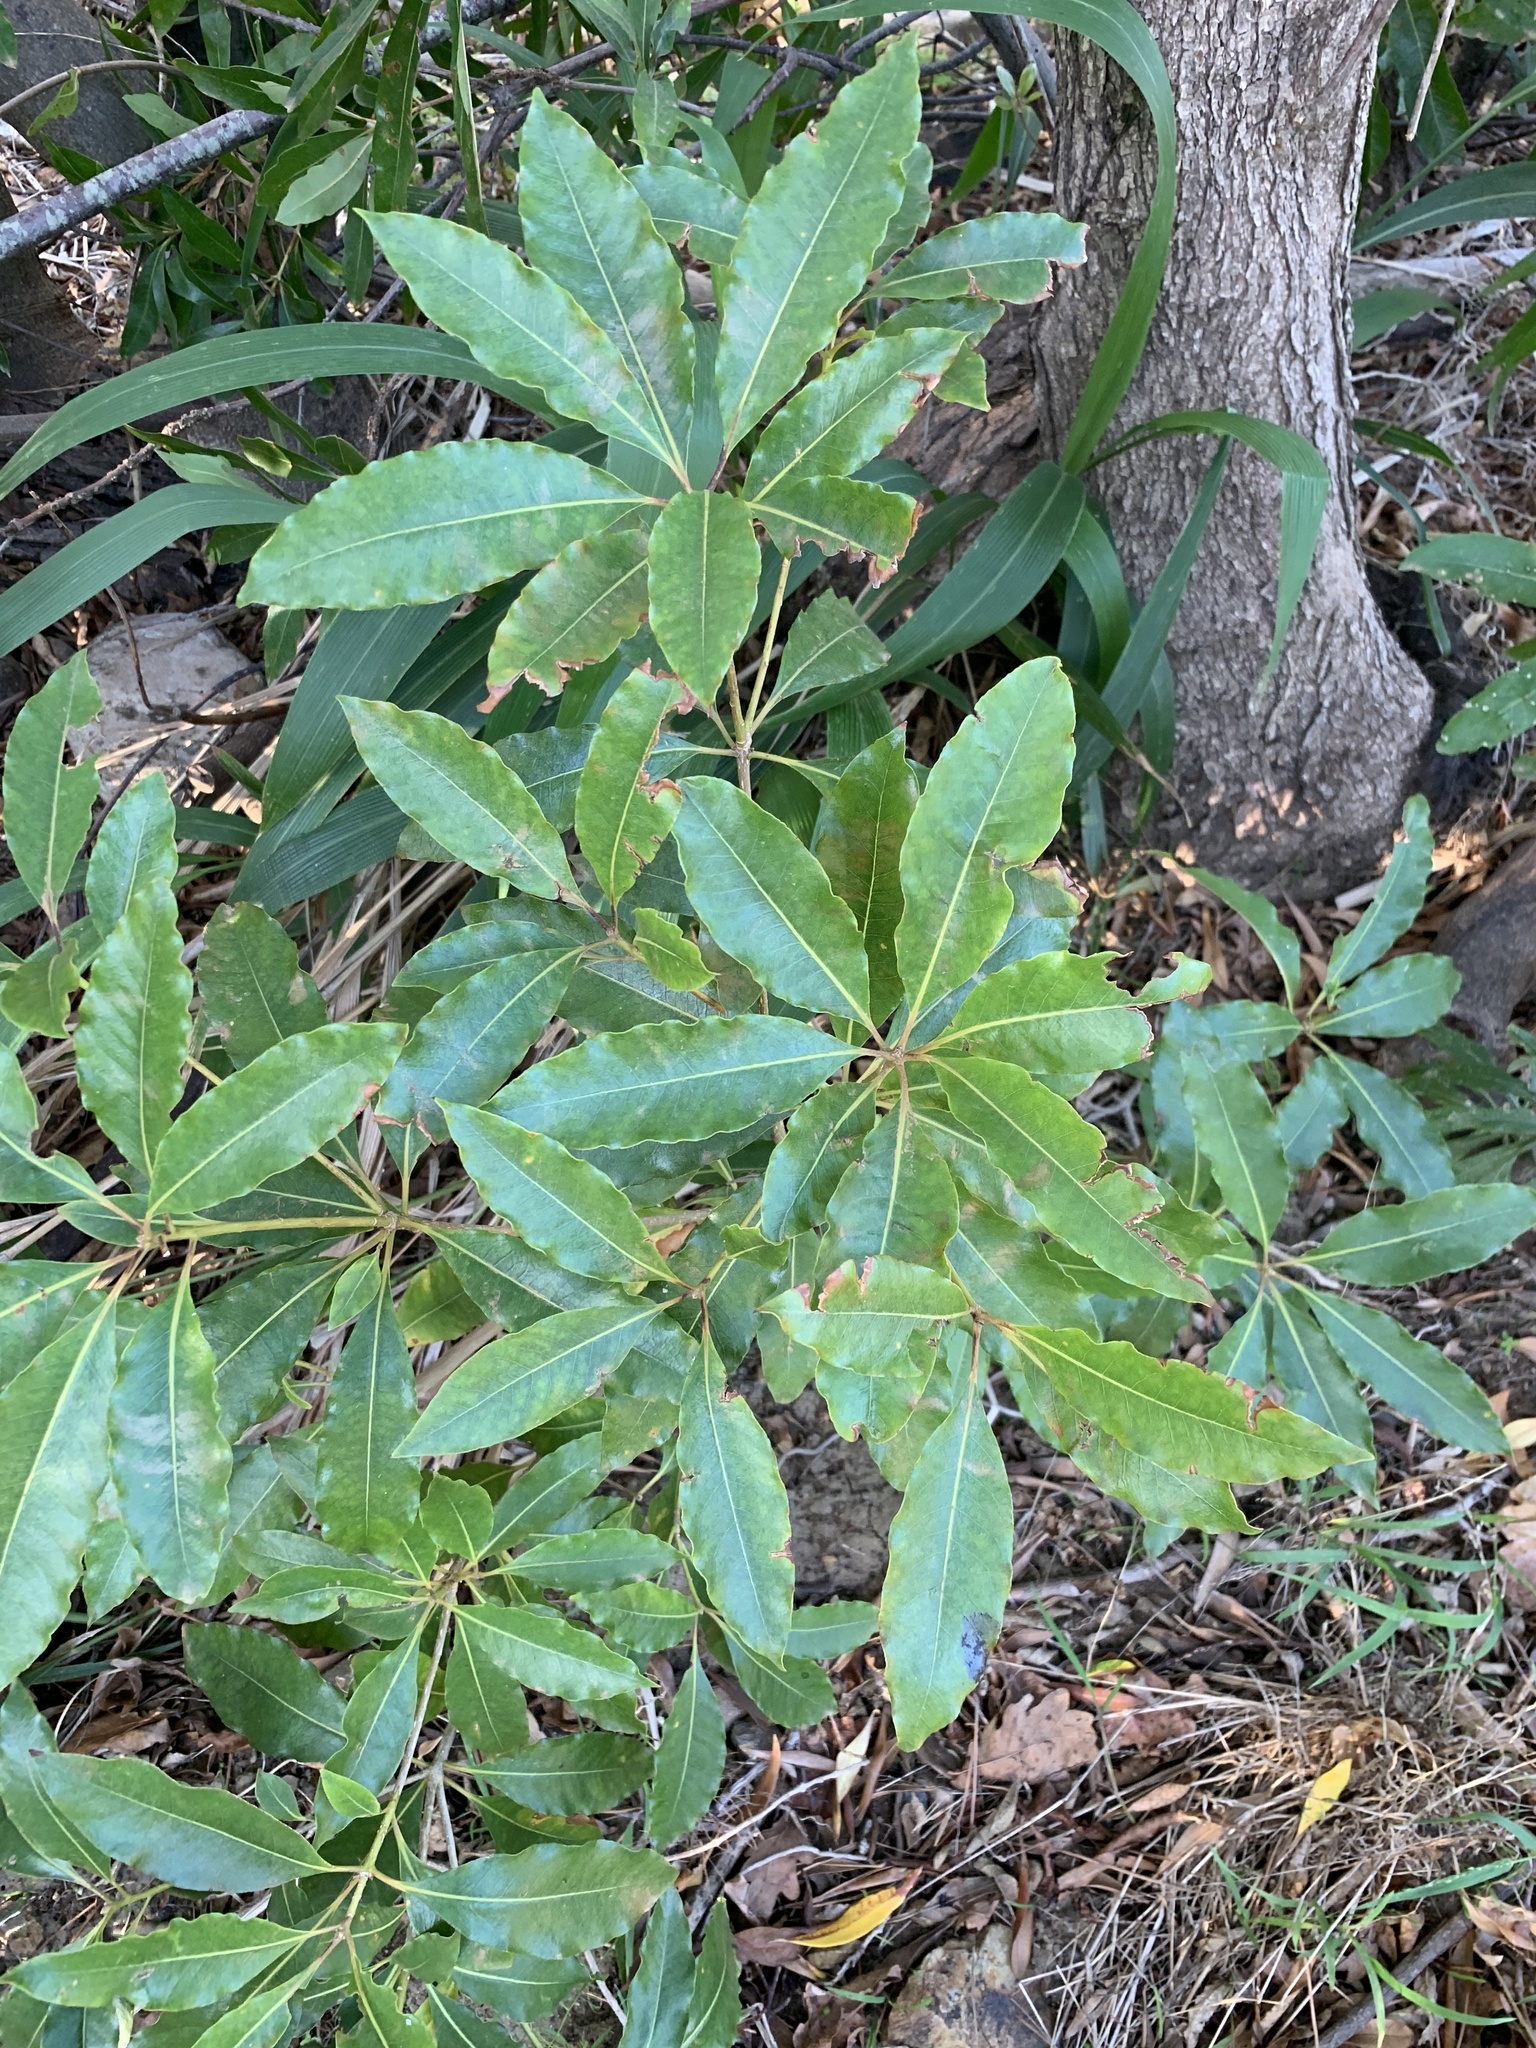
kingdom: Plantae
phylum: Tracheophyta
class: Magnoliopsida
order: Apiales
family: Pittosporaceae
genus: Pittosporum
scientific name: Pittosporum undulatum
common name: Australian cheesewood
